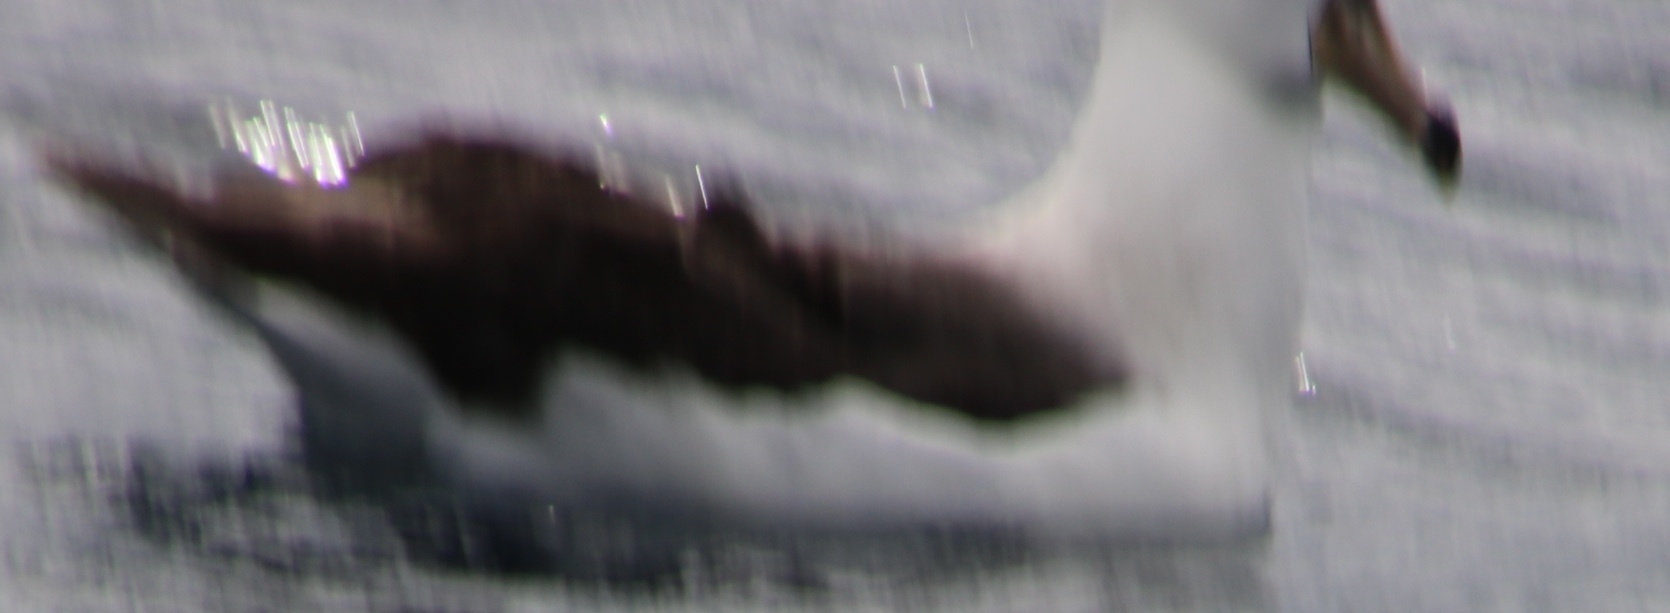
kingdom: Animalia
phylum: Chordata
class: Aves
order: Procellariiformes
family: Diomedeidae
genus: Thalassarche
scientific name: Thalassarche melanophris
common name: Black-browed albatross
